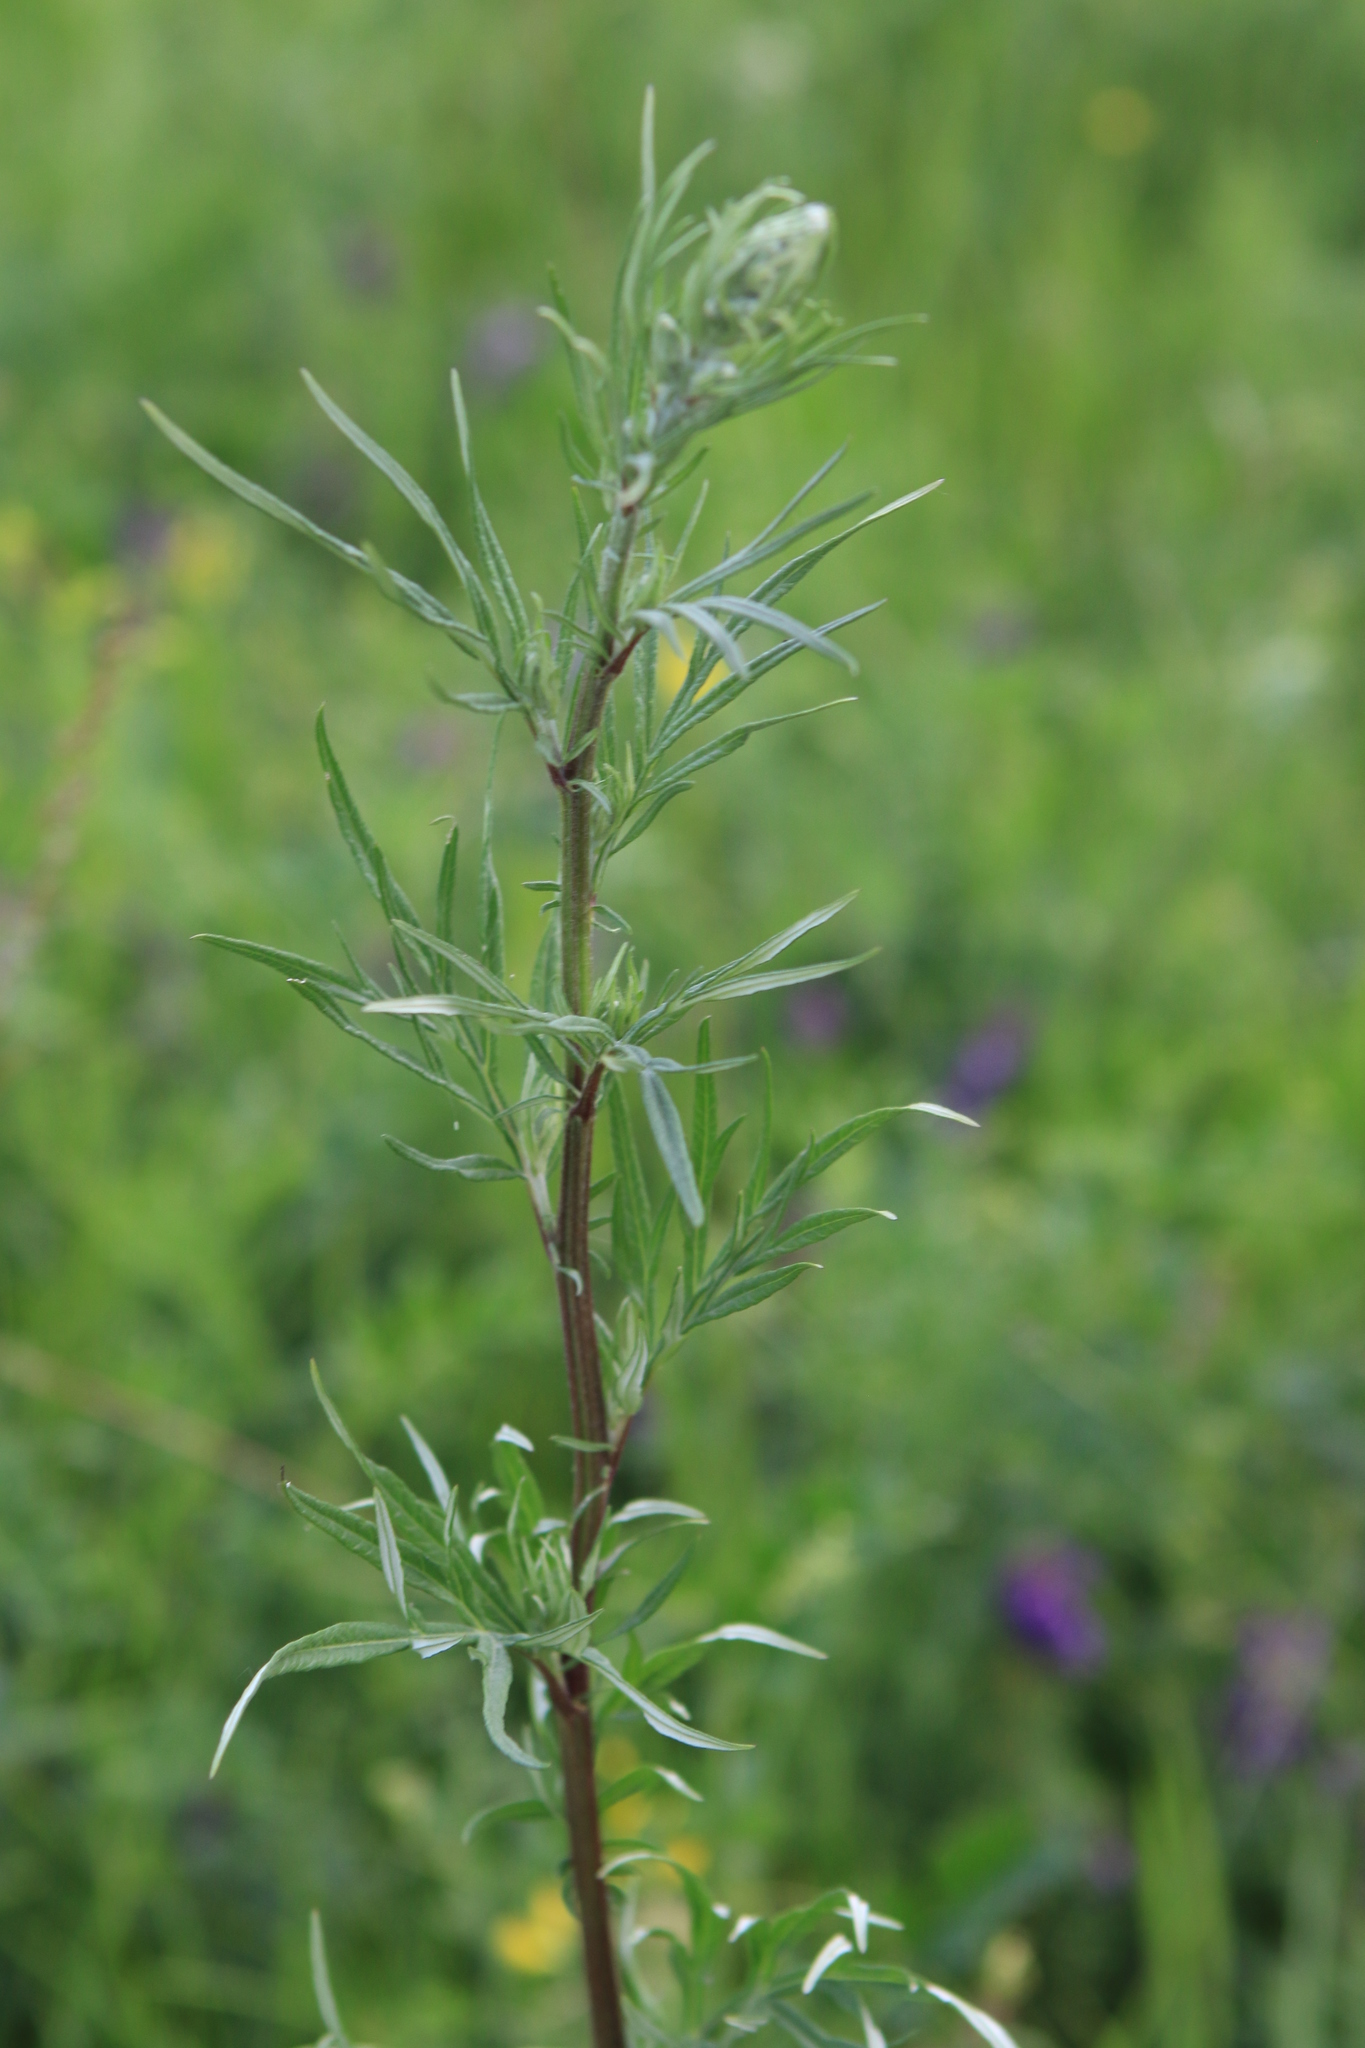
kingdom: Plantae
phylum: Tracheophyta
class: Magnoliopsida
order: Asterales
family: Asteraceae
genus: Artemisia
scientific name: Artemisia vulgaris
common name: Mugwort
